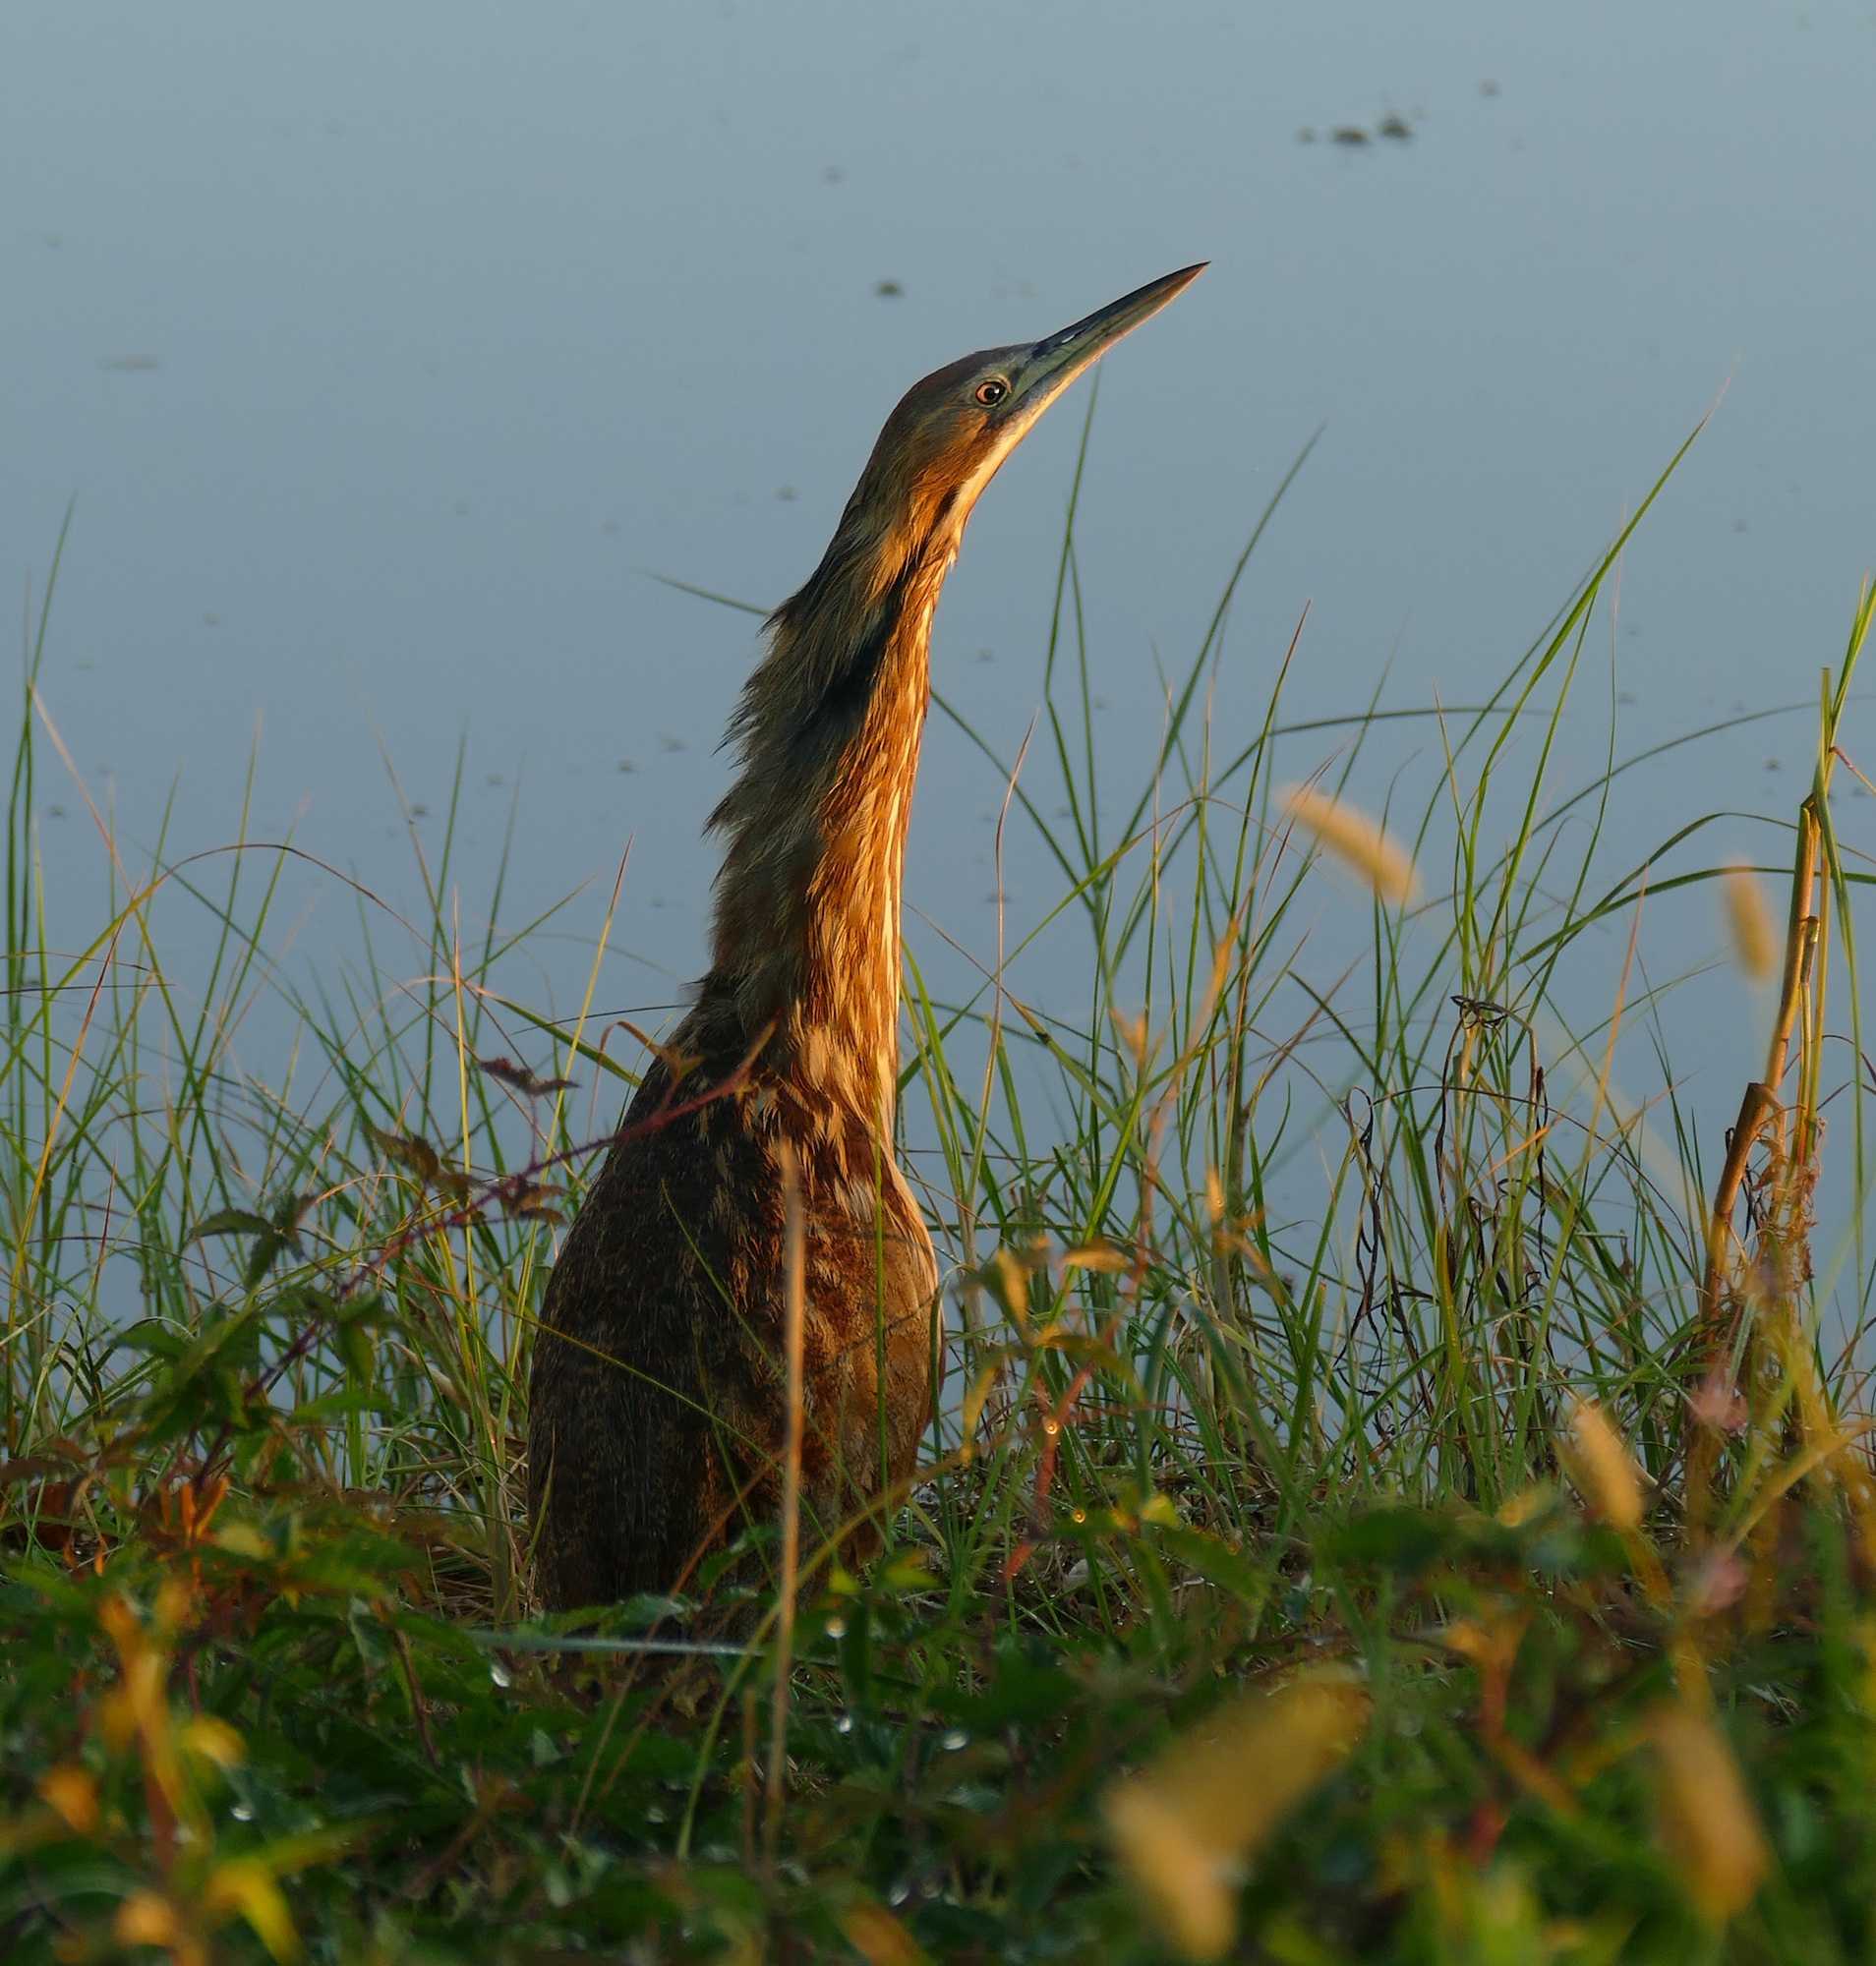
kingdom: Animalia
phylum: Chordata
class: Aves
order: Pelecaniformes
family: Ardeidae
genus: Botaurus
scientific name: Botaurus lentiginosus
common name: American bittern
